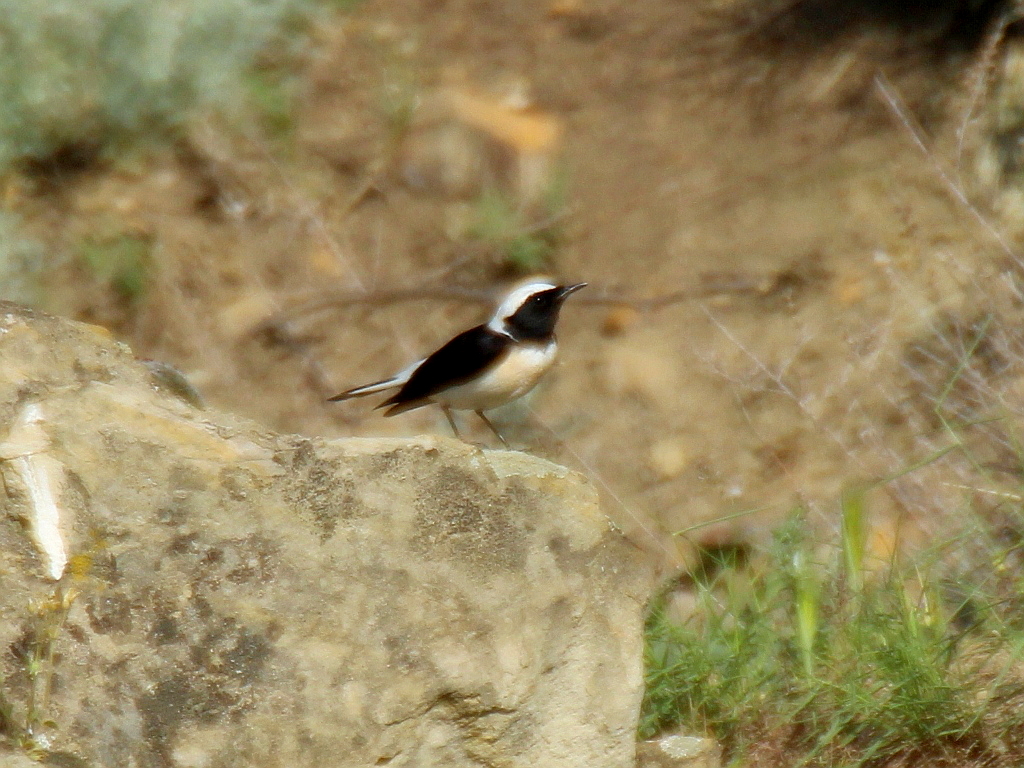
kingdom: Animalia
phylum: Chordata
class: Aves
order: Passeriformes
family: Muscicapidae
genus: Oenanthe
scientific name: Oenanthe pleschanka
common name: Pied wheatear
